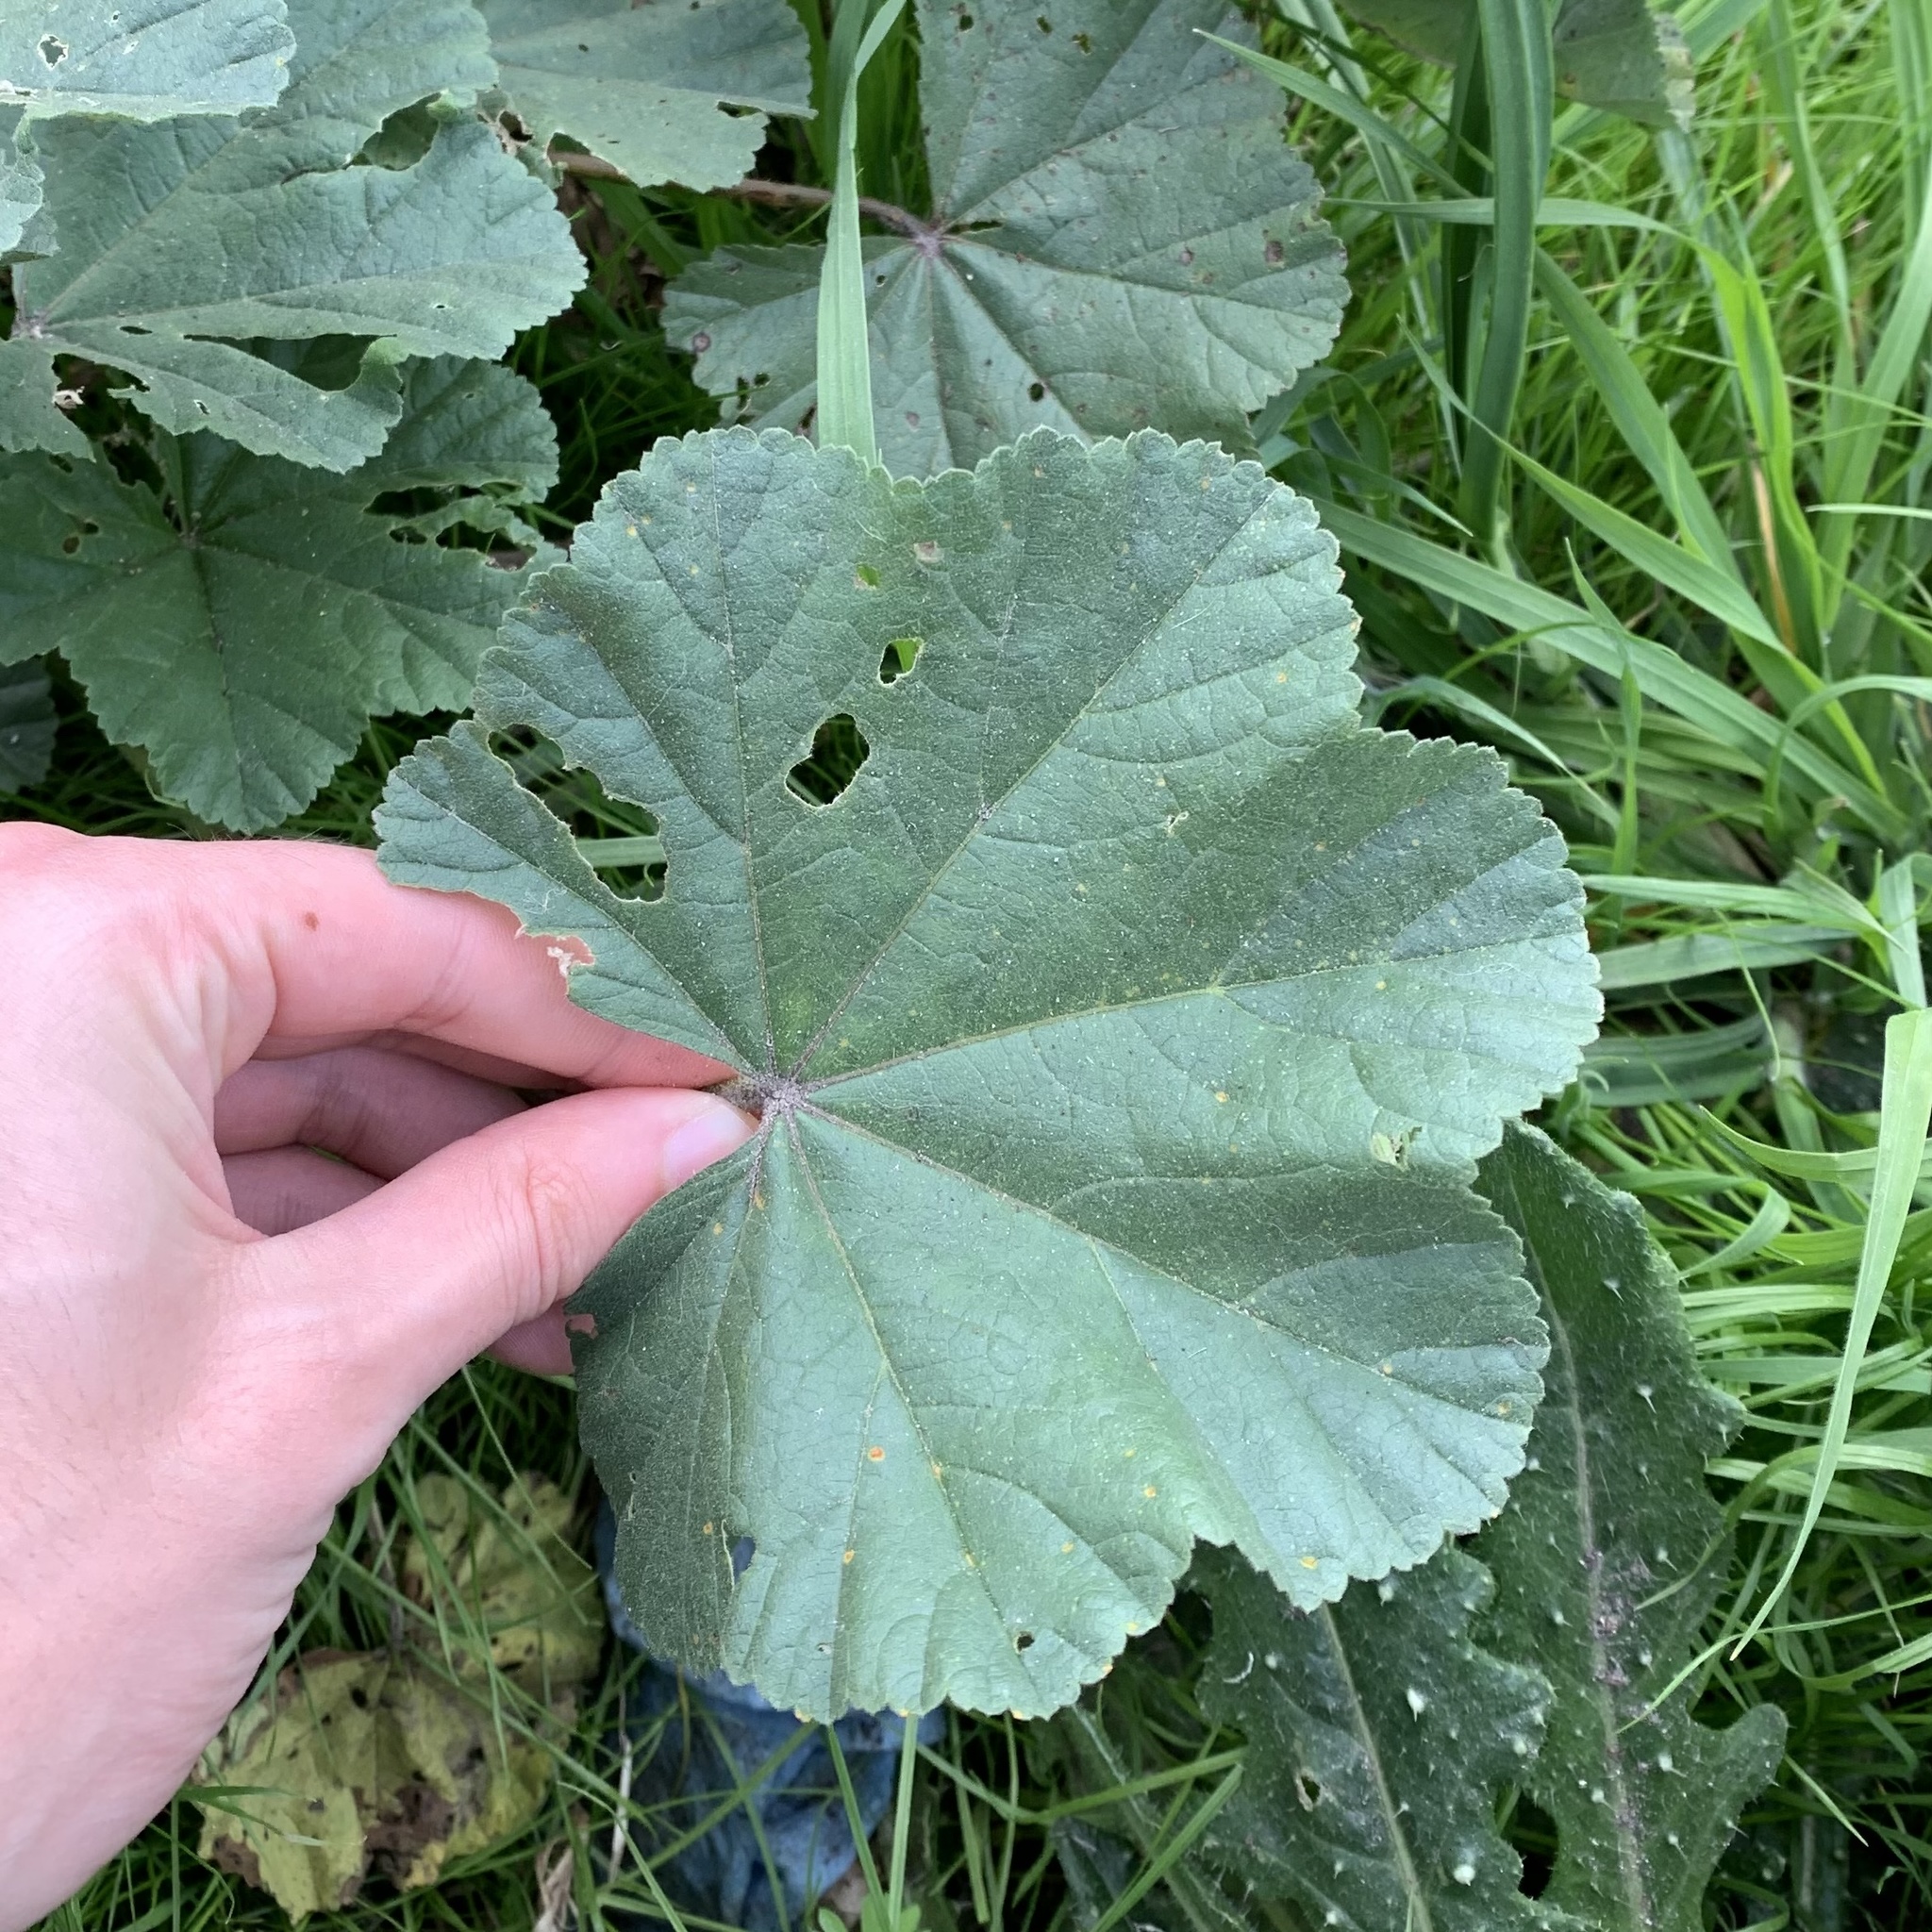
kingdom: Plantae
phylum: Tracheophyta
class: Magnoliopsida
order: Malvales
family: Malvaceae
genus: Malva
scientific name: Malva
